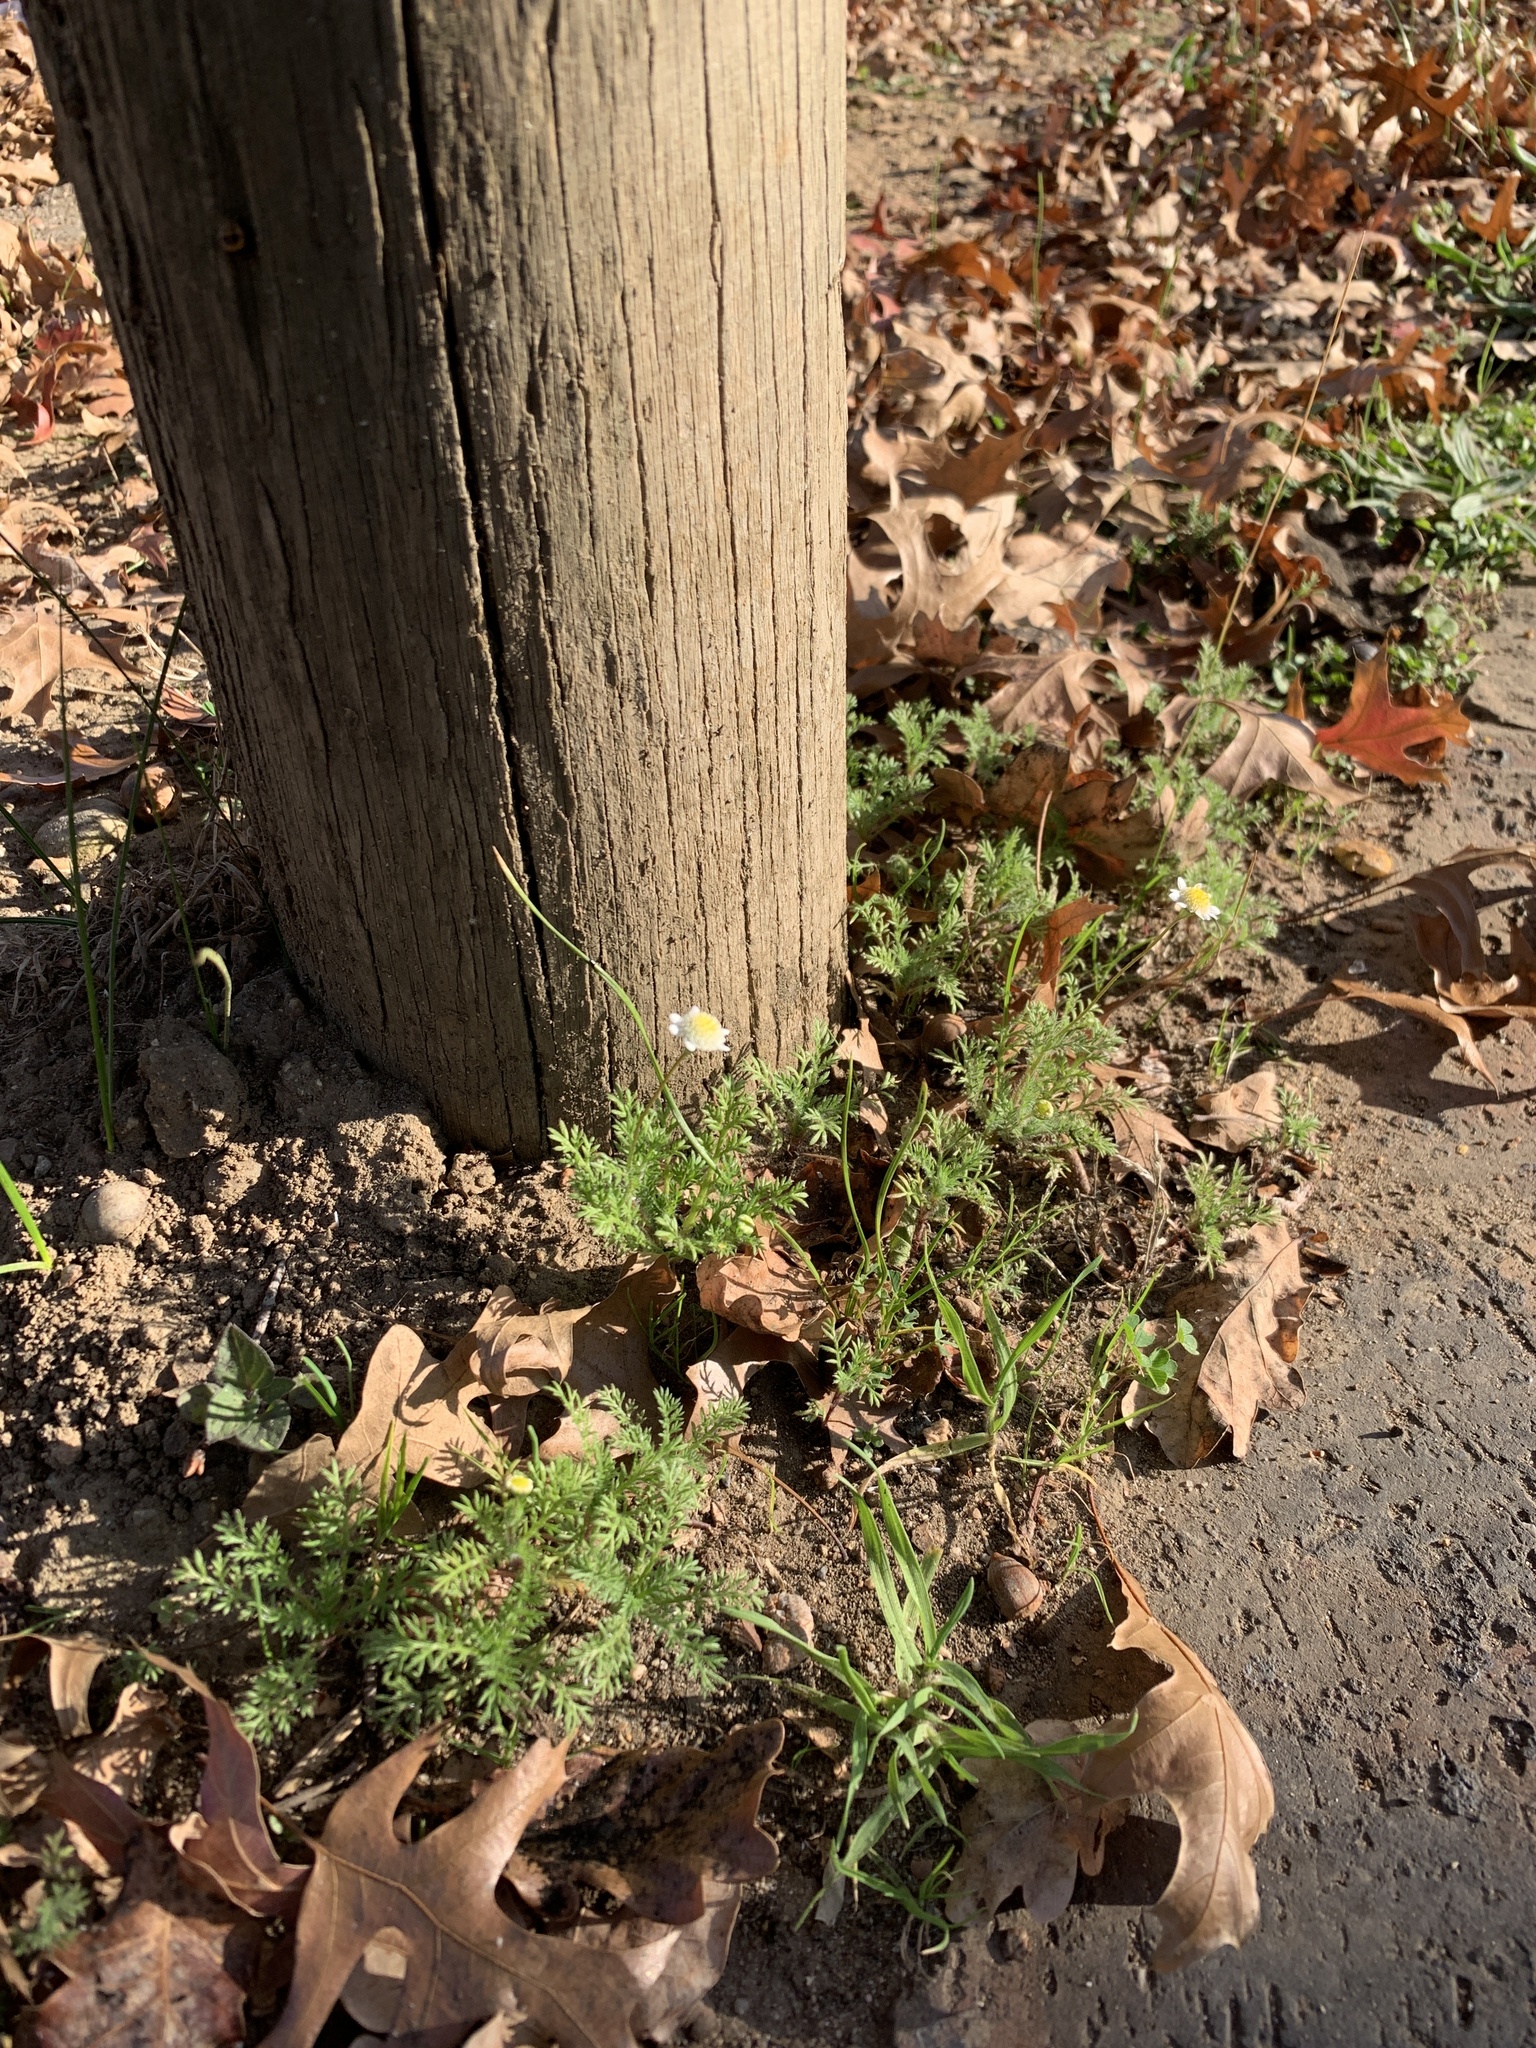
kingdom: Plantae
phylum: Tracheophyta
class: Magnoliopsida
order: Asterales
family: Asteraceae
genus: Cotula
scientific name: Cotula turbinata
